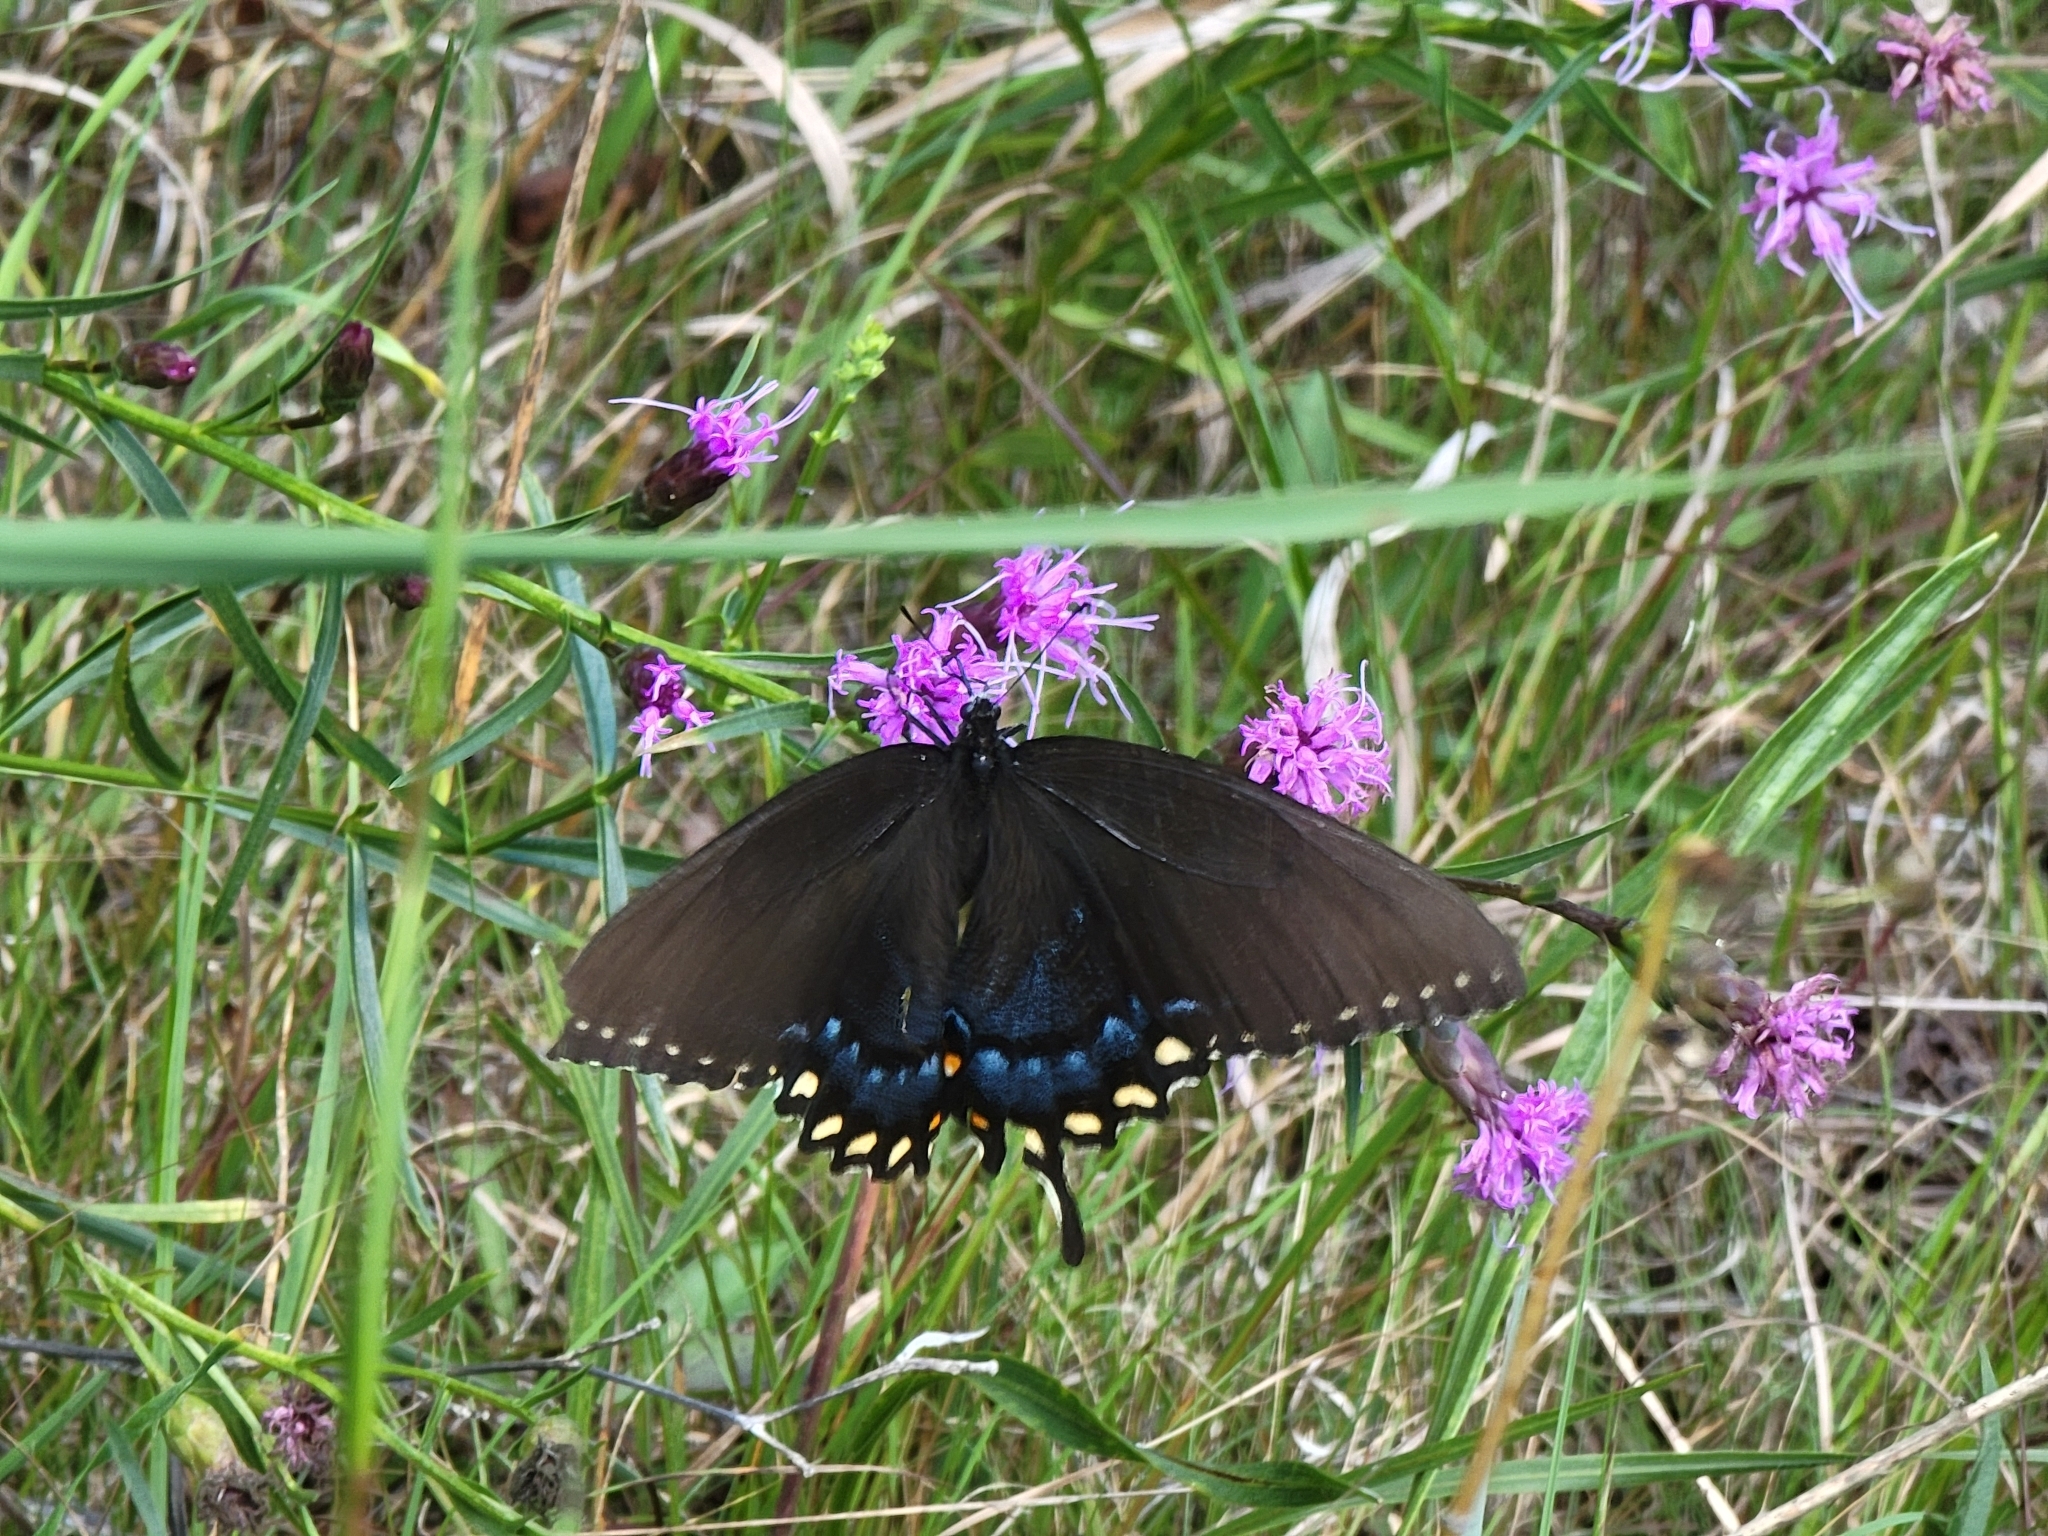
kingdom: Animalia
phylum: Arthropoda
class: Insecta
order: Lepidoptera
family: Papilionidae
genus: Papilio
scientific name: Papilio glaucus
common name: Tiger swallowtail
